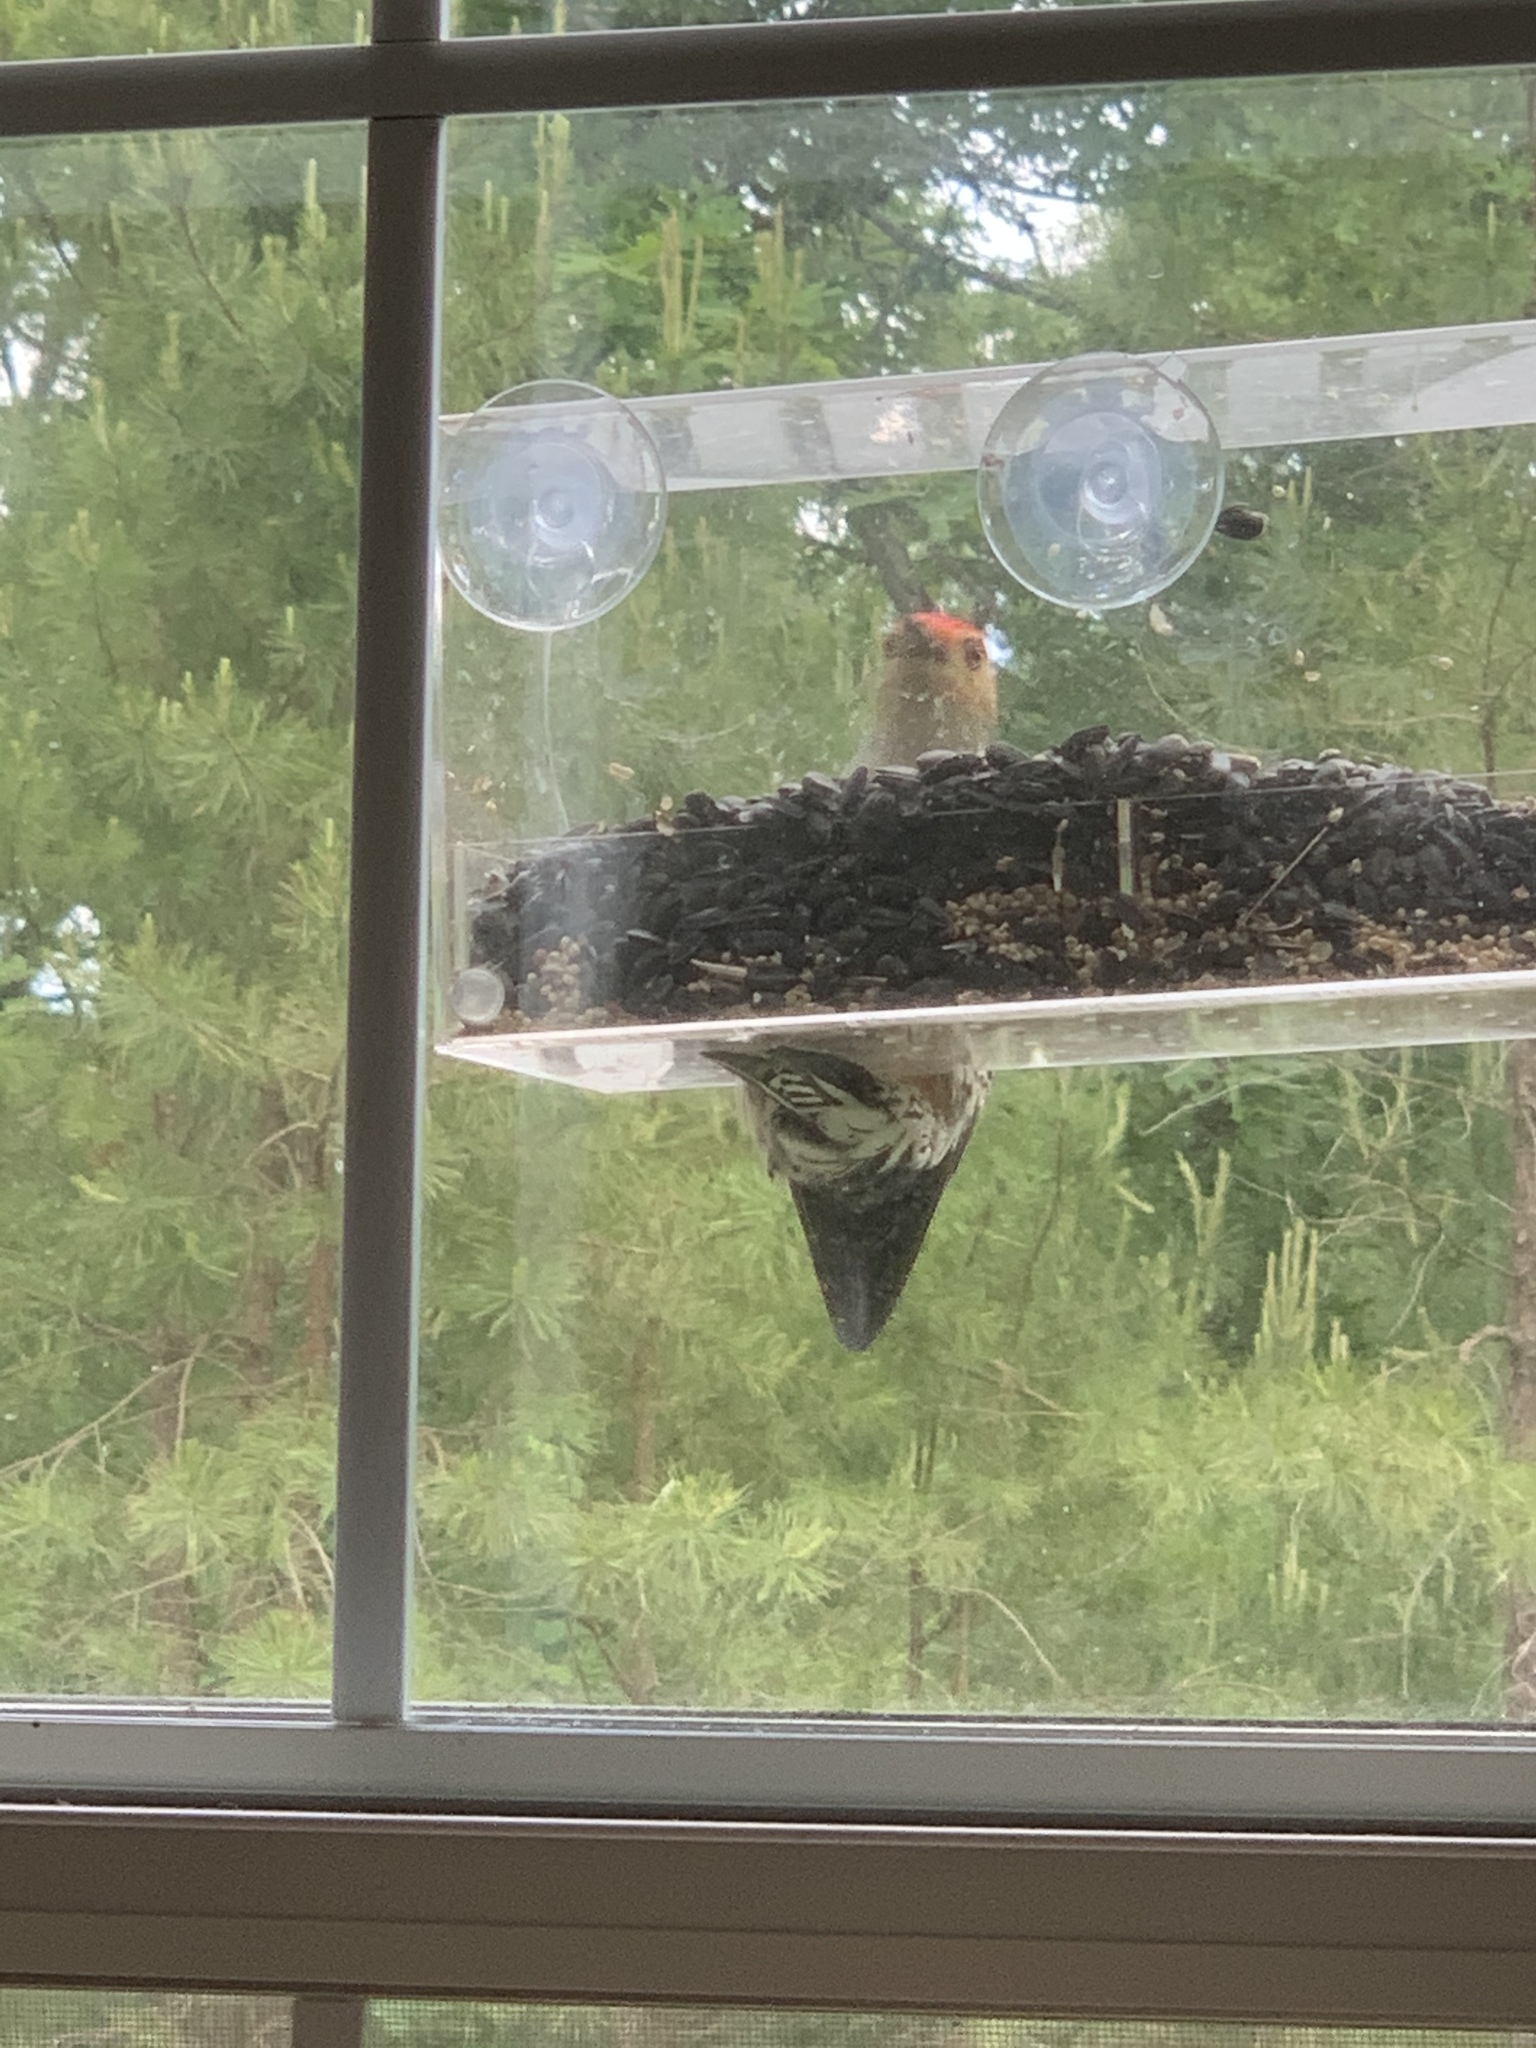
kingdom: Animalia
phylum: Chordata
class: Aves
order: Piciformes
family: Picidae
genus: Melanerpes
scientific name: Melanerpes carolinus
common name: Red-bellied woodpecker
